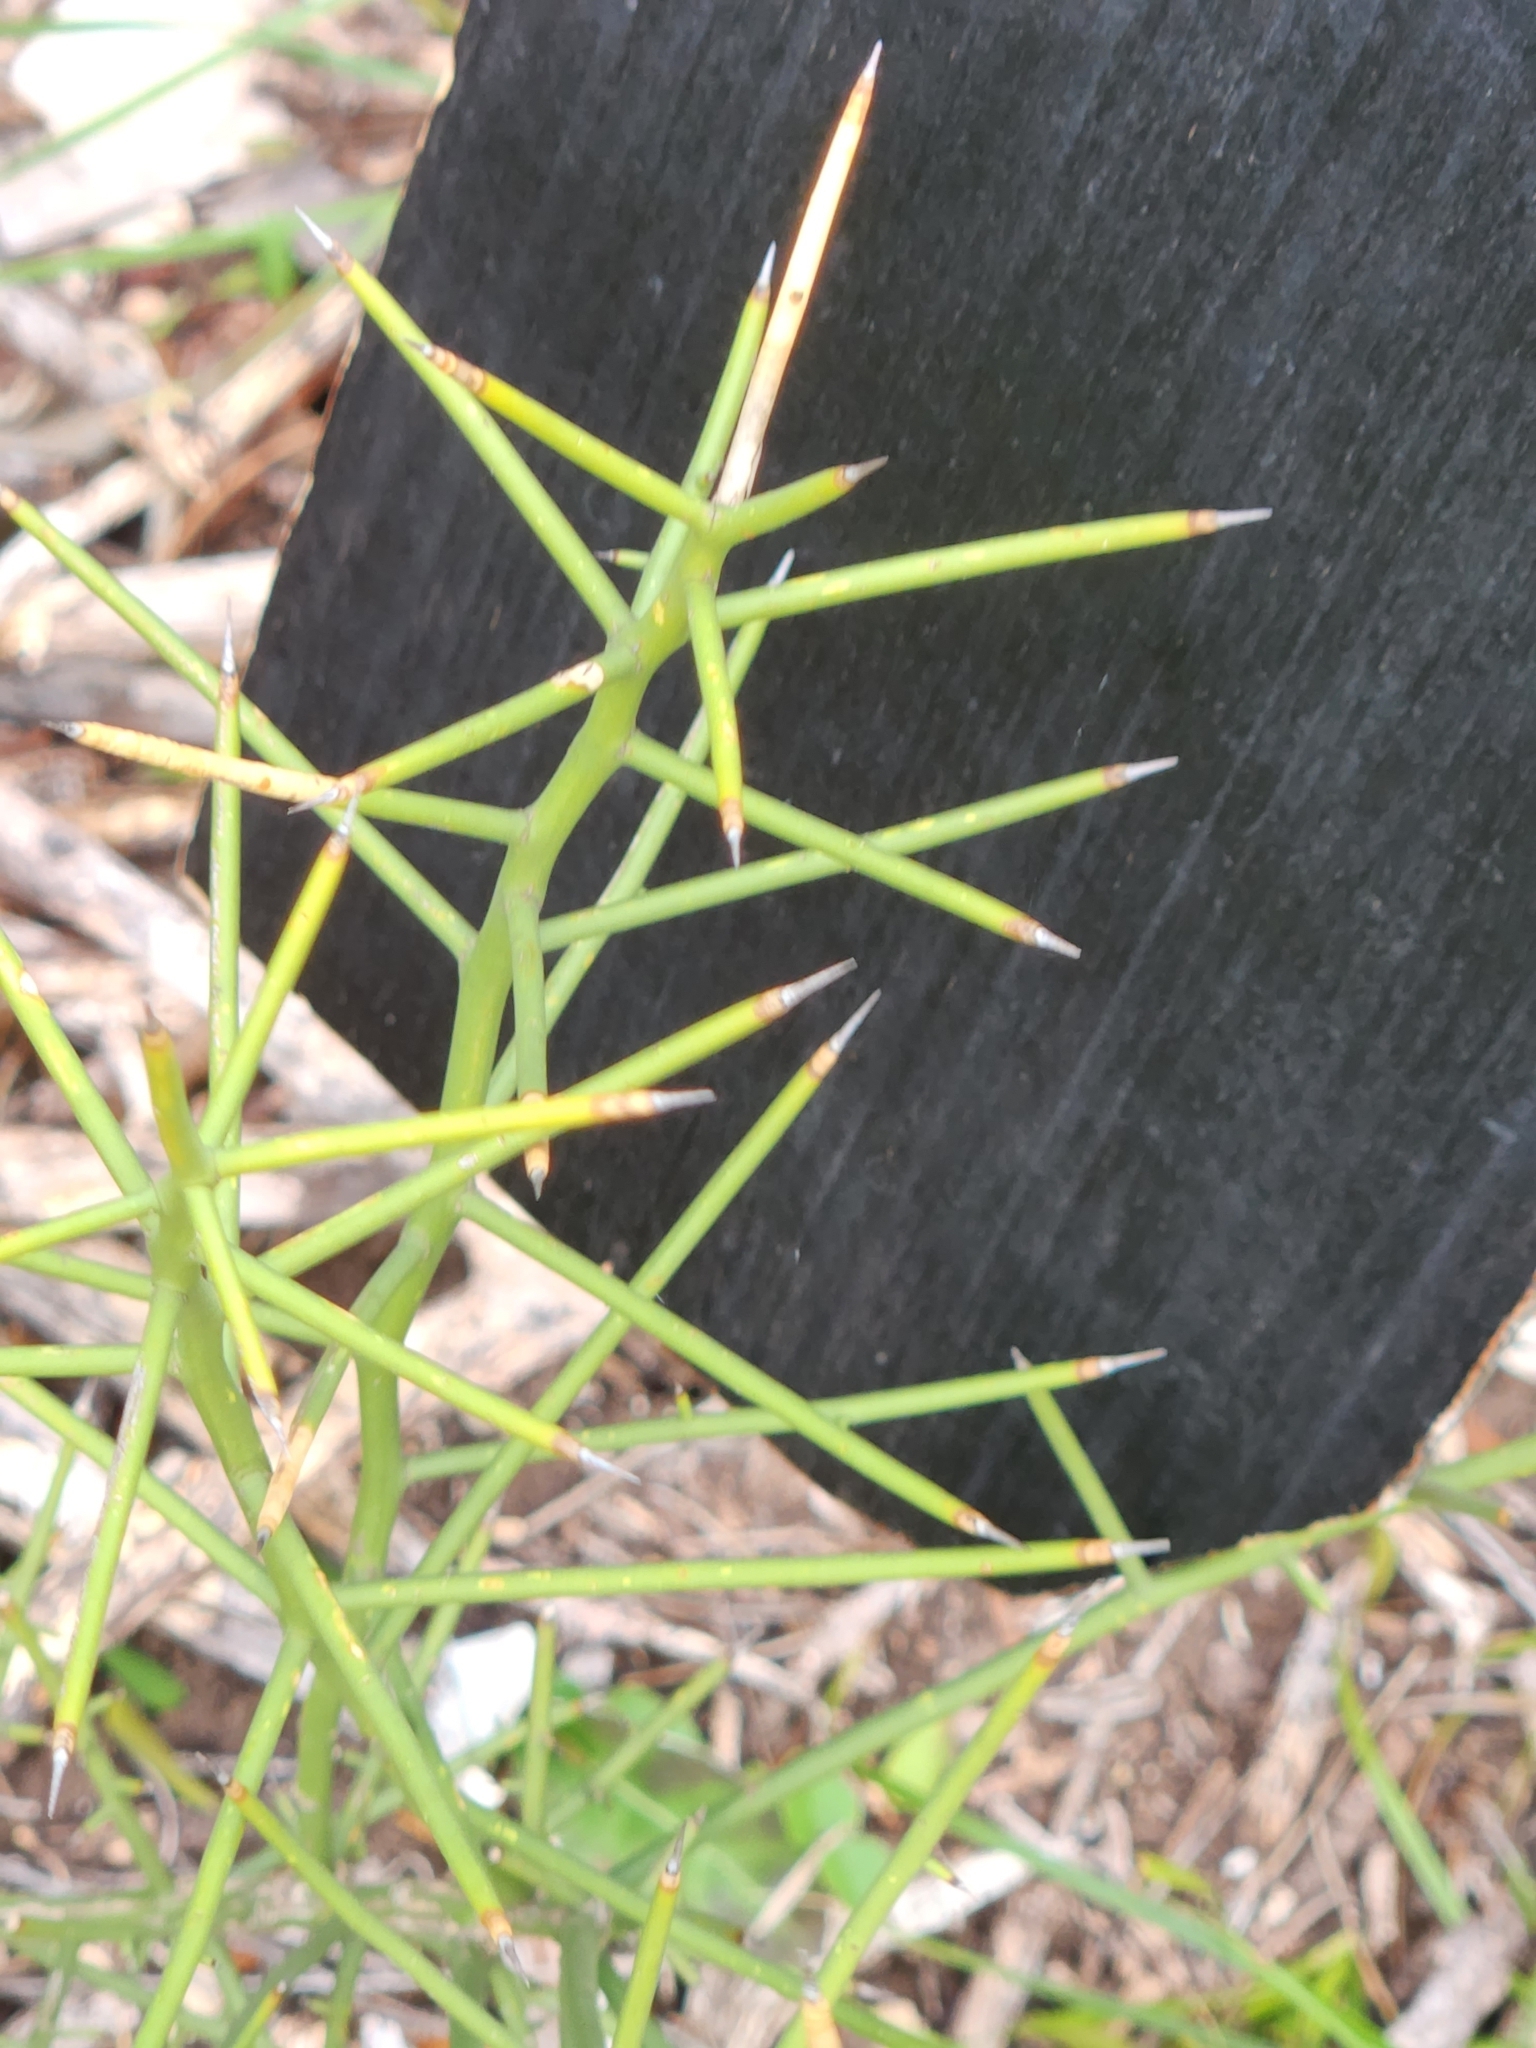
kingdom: Plantae
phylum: Tracheophyta
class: Magnoliopsida
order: Brassicales
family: Koeberliniaceae
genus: Koeberlinia
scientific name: Koeberlinia spinosa
